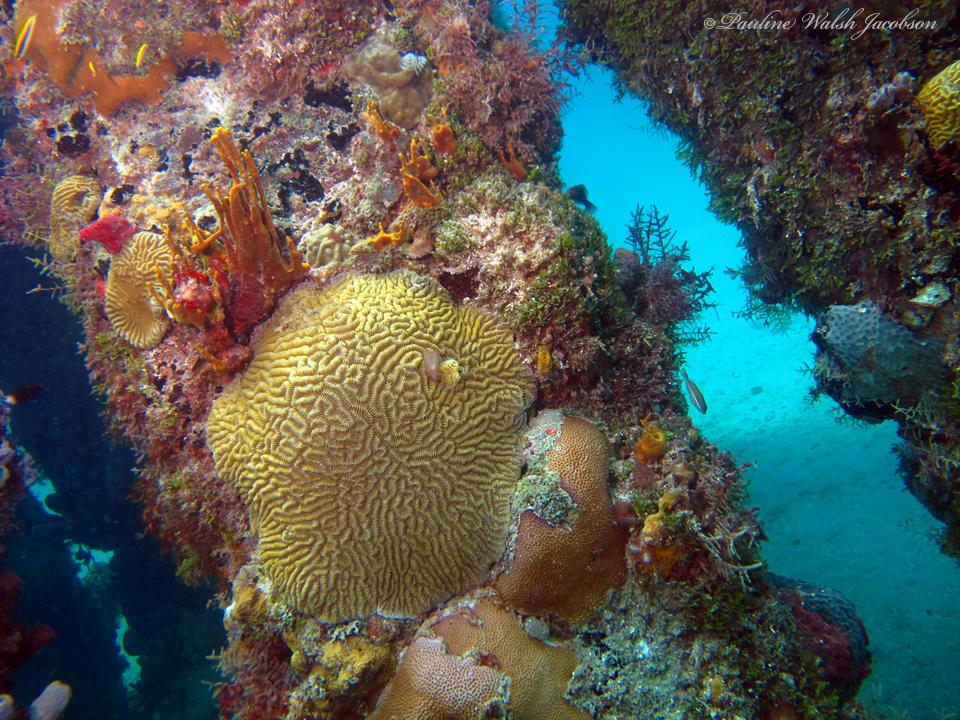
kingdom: Animalia
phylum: Cnidaria
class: Anthozoa
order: Scleractinia
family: Meandrinidae
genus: Meandrina
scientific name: Meandrina meandrites
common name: Maze coral
